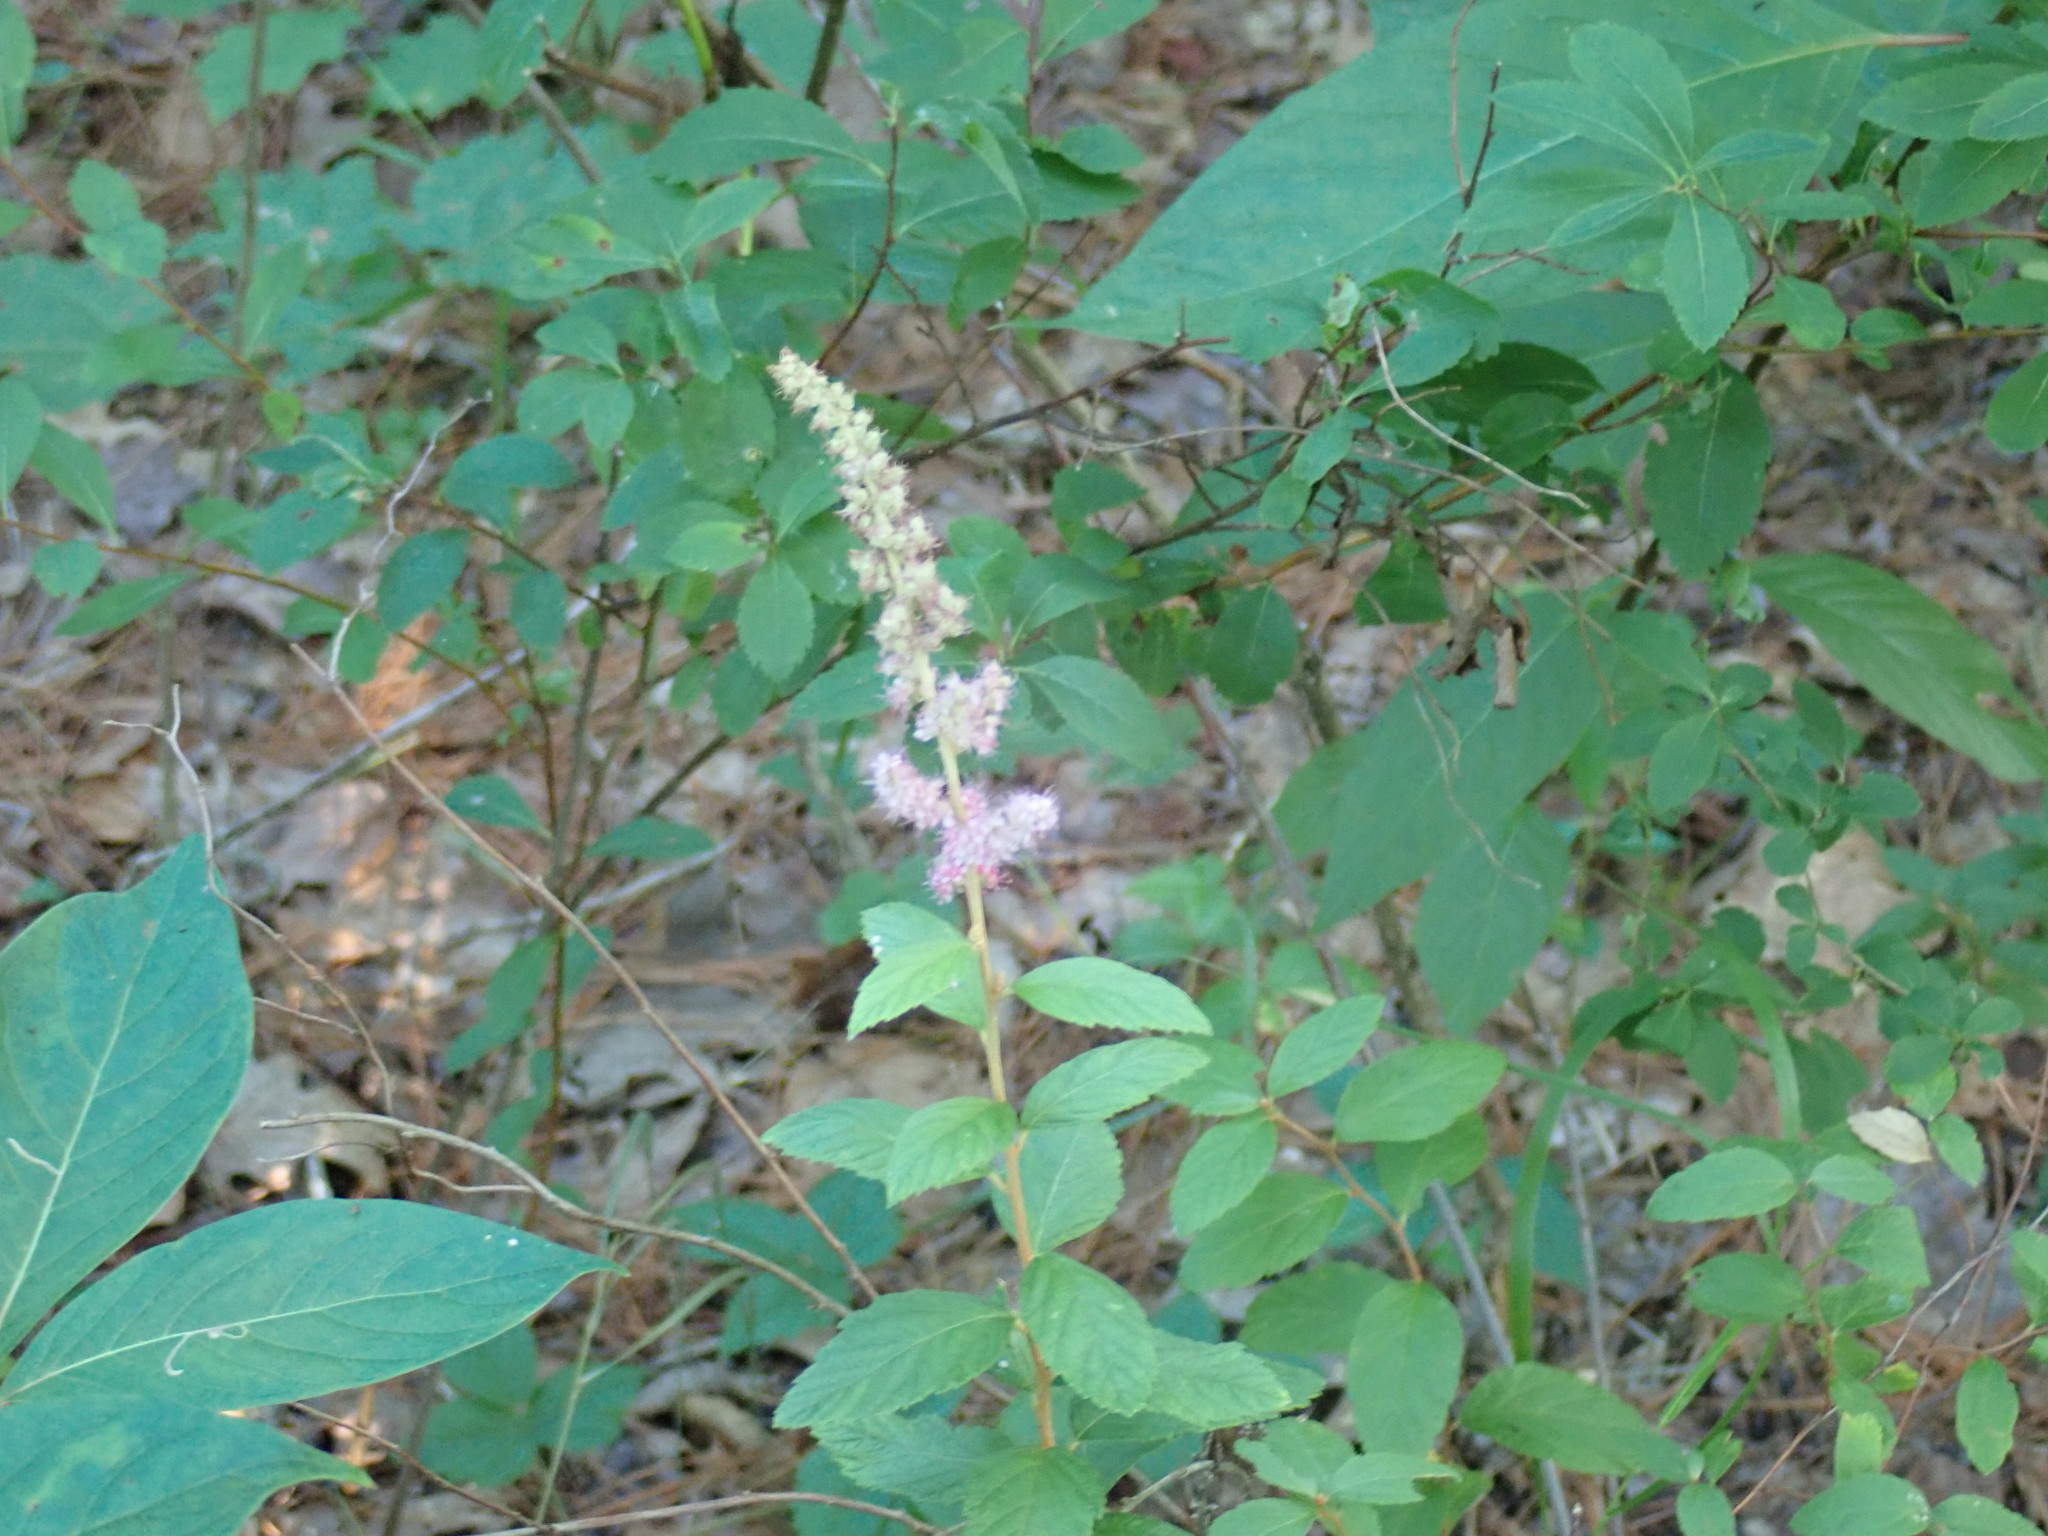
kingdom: Plantae
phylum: Tracheophyta
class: Magnoliopsida
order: Rosales
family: Rosaceae
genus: Spiraea
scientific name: Spiraea tomentosa
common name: Hardhack
